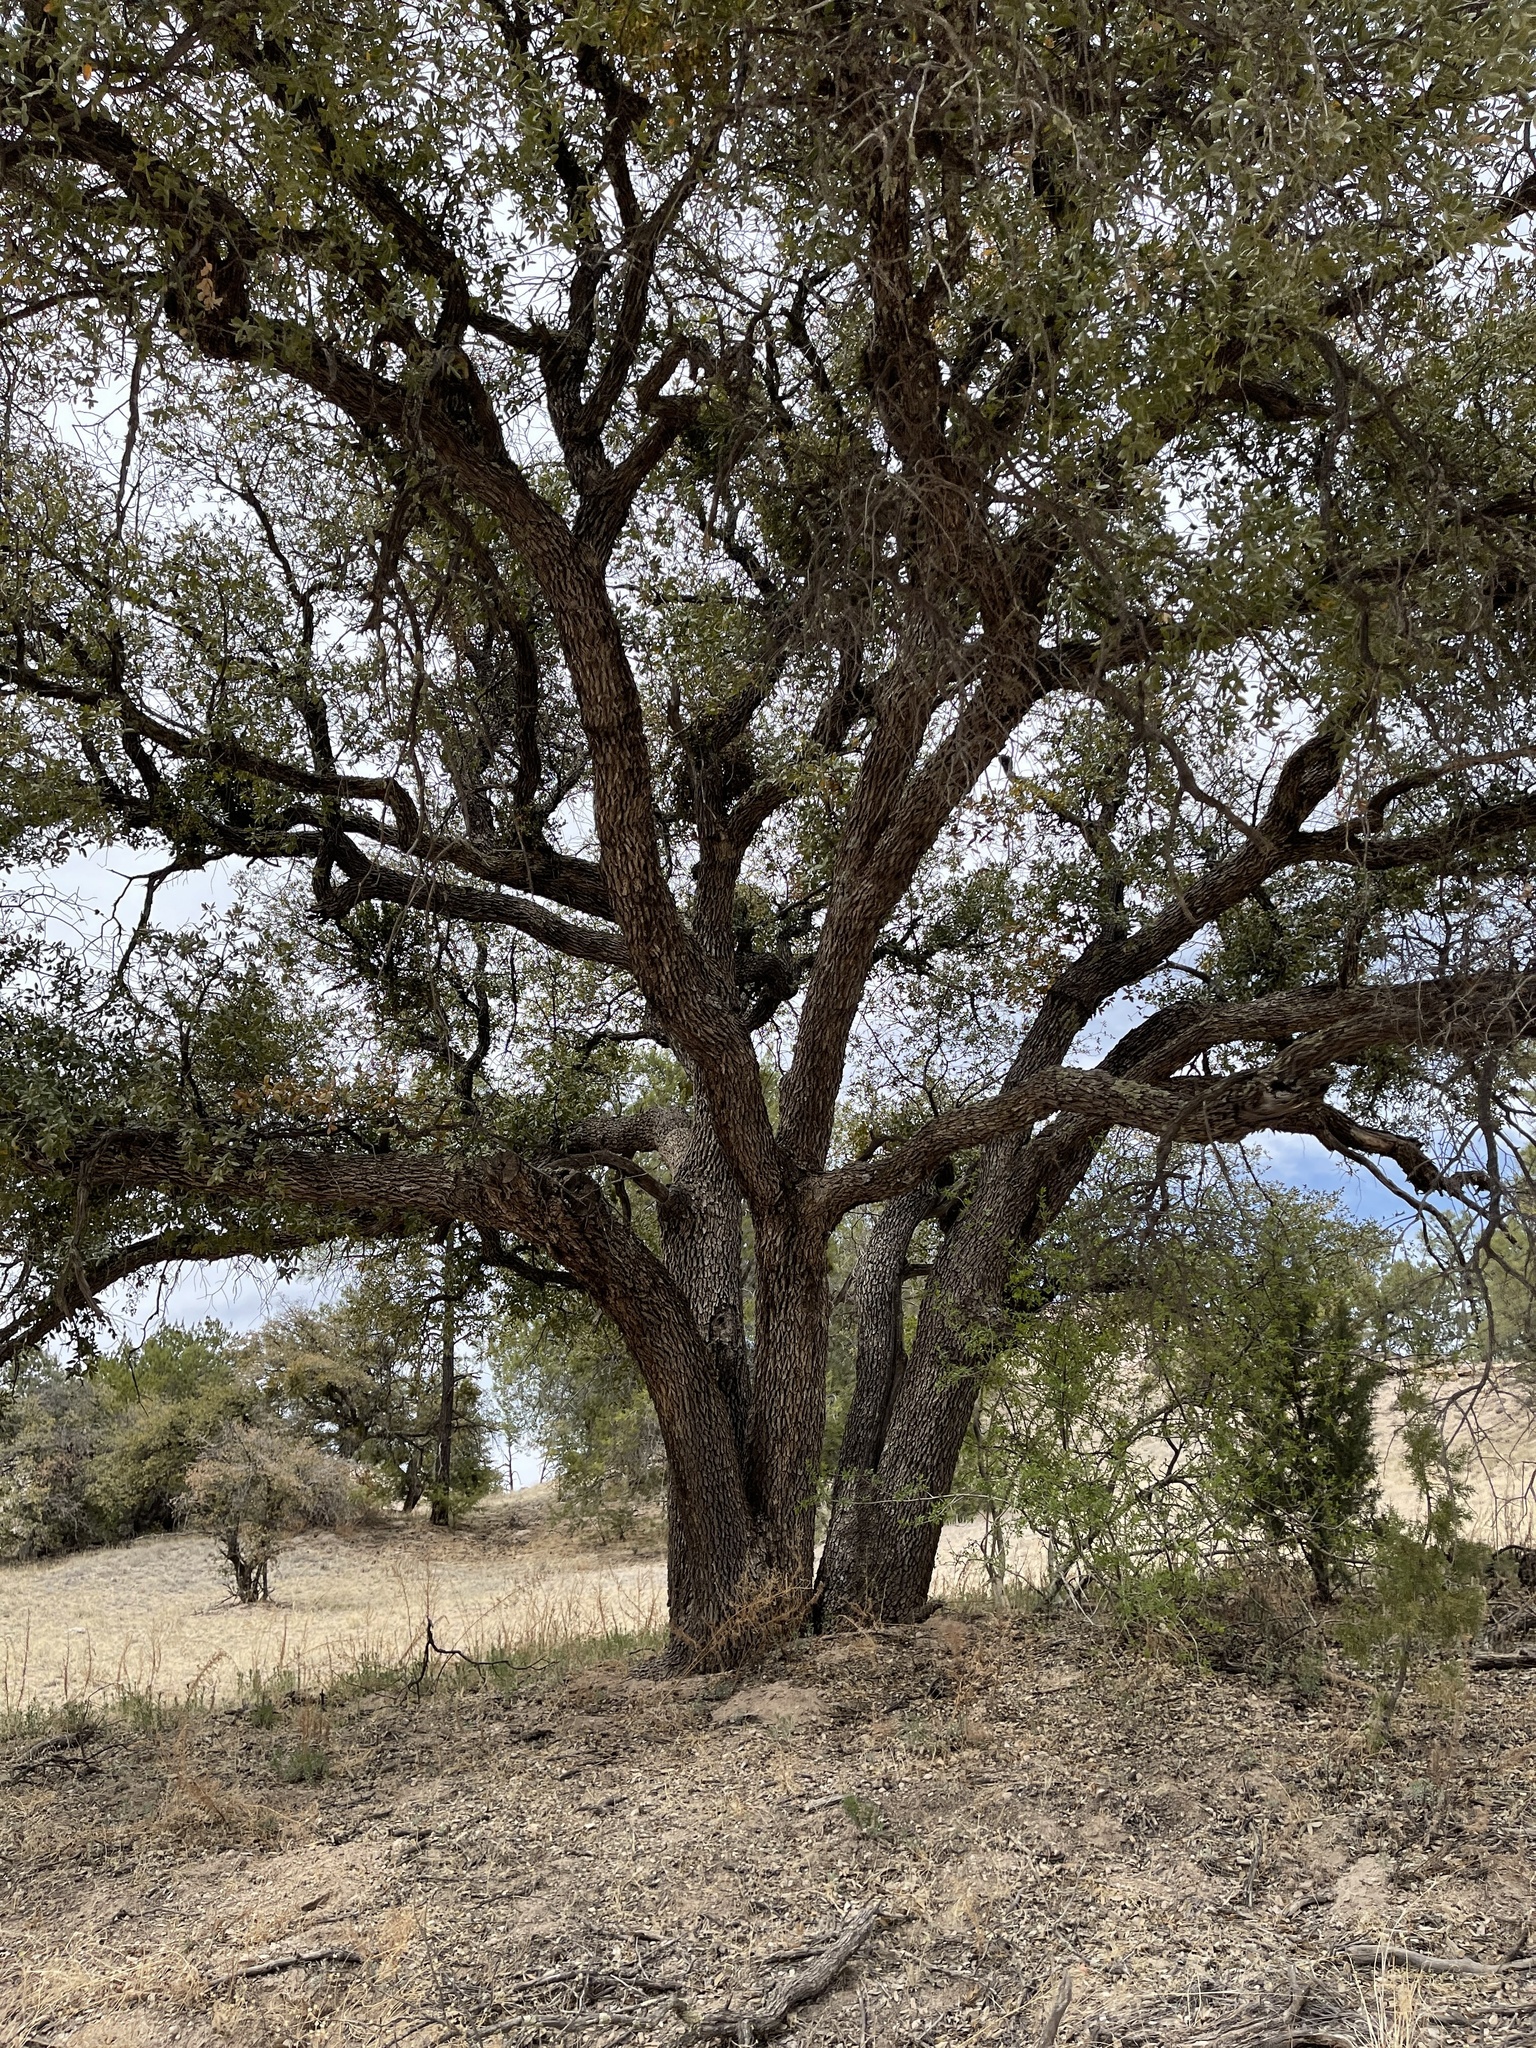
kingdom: Plantae
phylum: Tracheophyta
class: Magnoliopsida
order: Fagales
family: Fagaceae
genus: Quercus
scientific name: Quercus emoryi
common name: Emory oak
